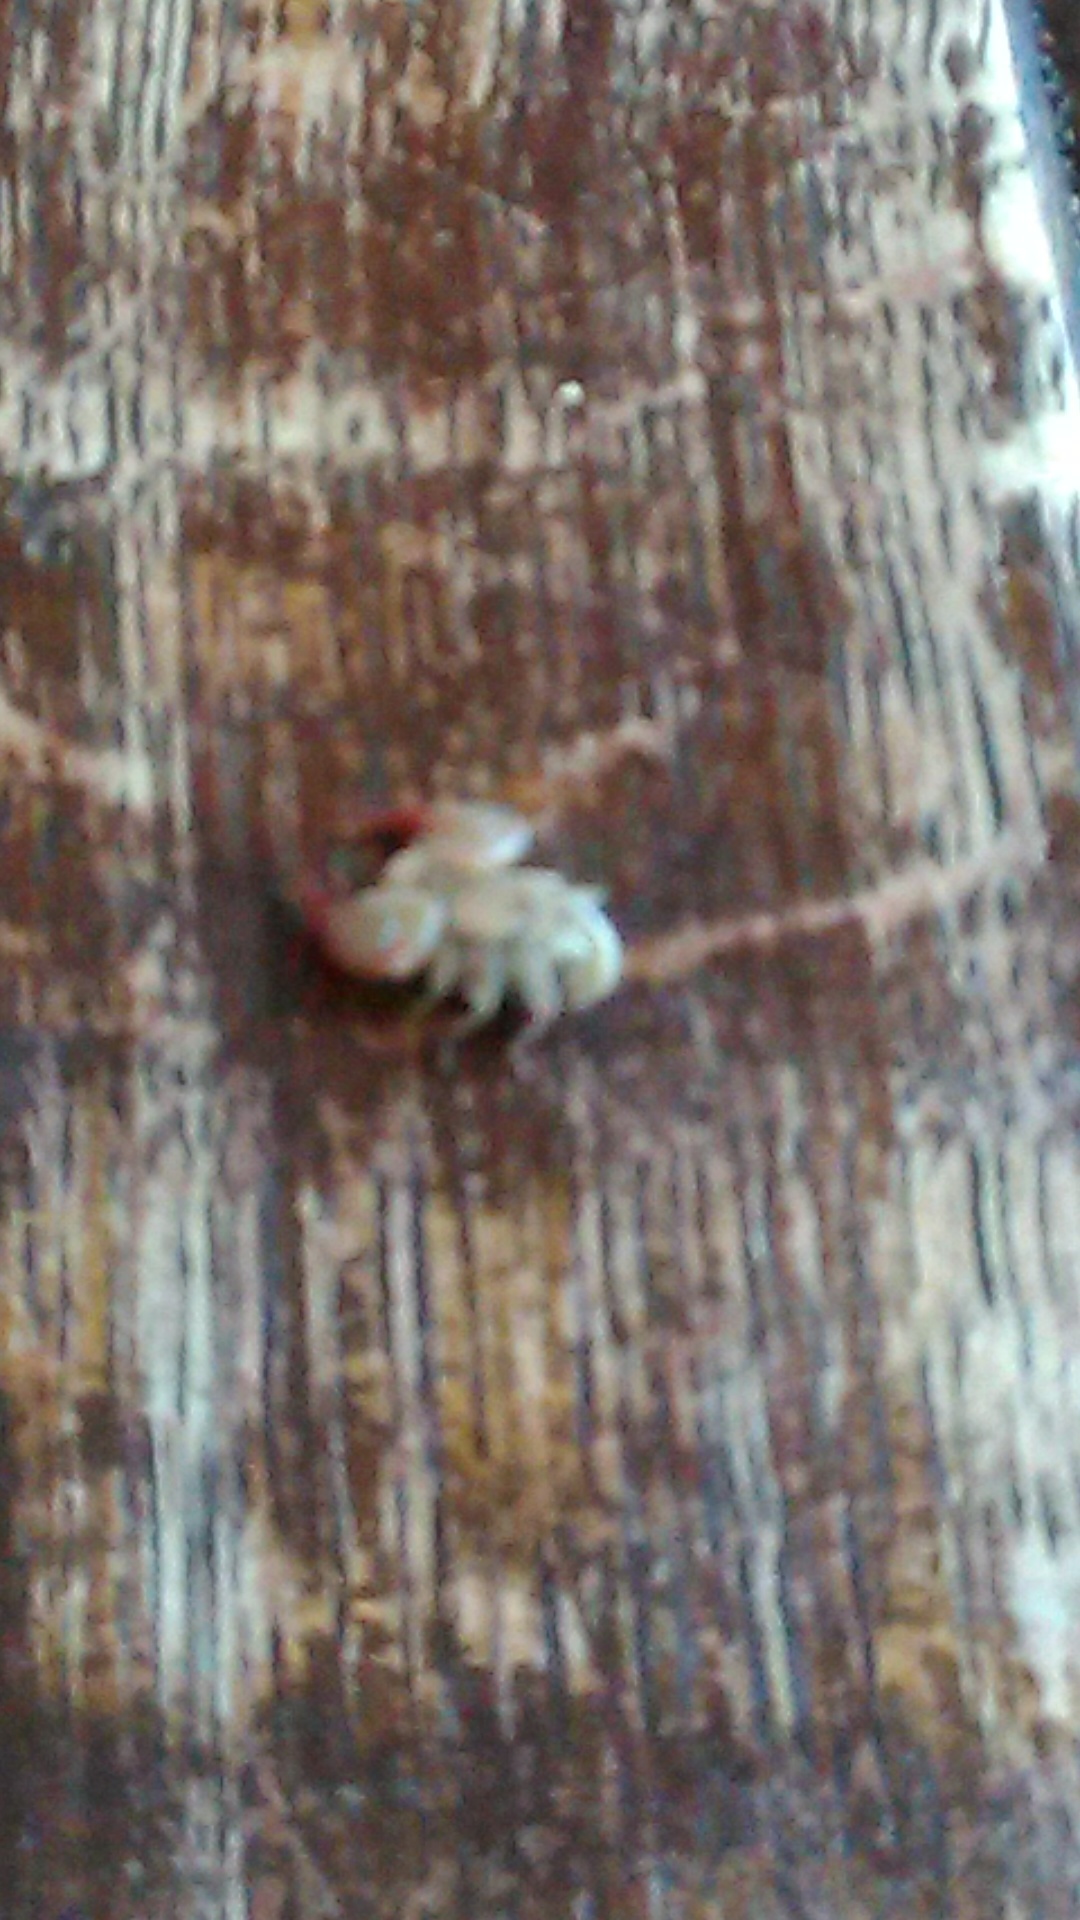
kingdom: Animalia
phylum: Arthropoda
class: Arachnida
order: Scorpiones
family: Euscorpiidae
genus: Euscorpius
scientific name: Euscorpius tauricus
